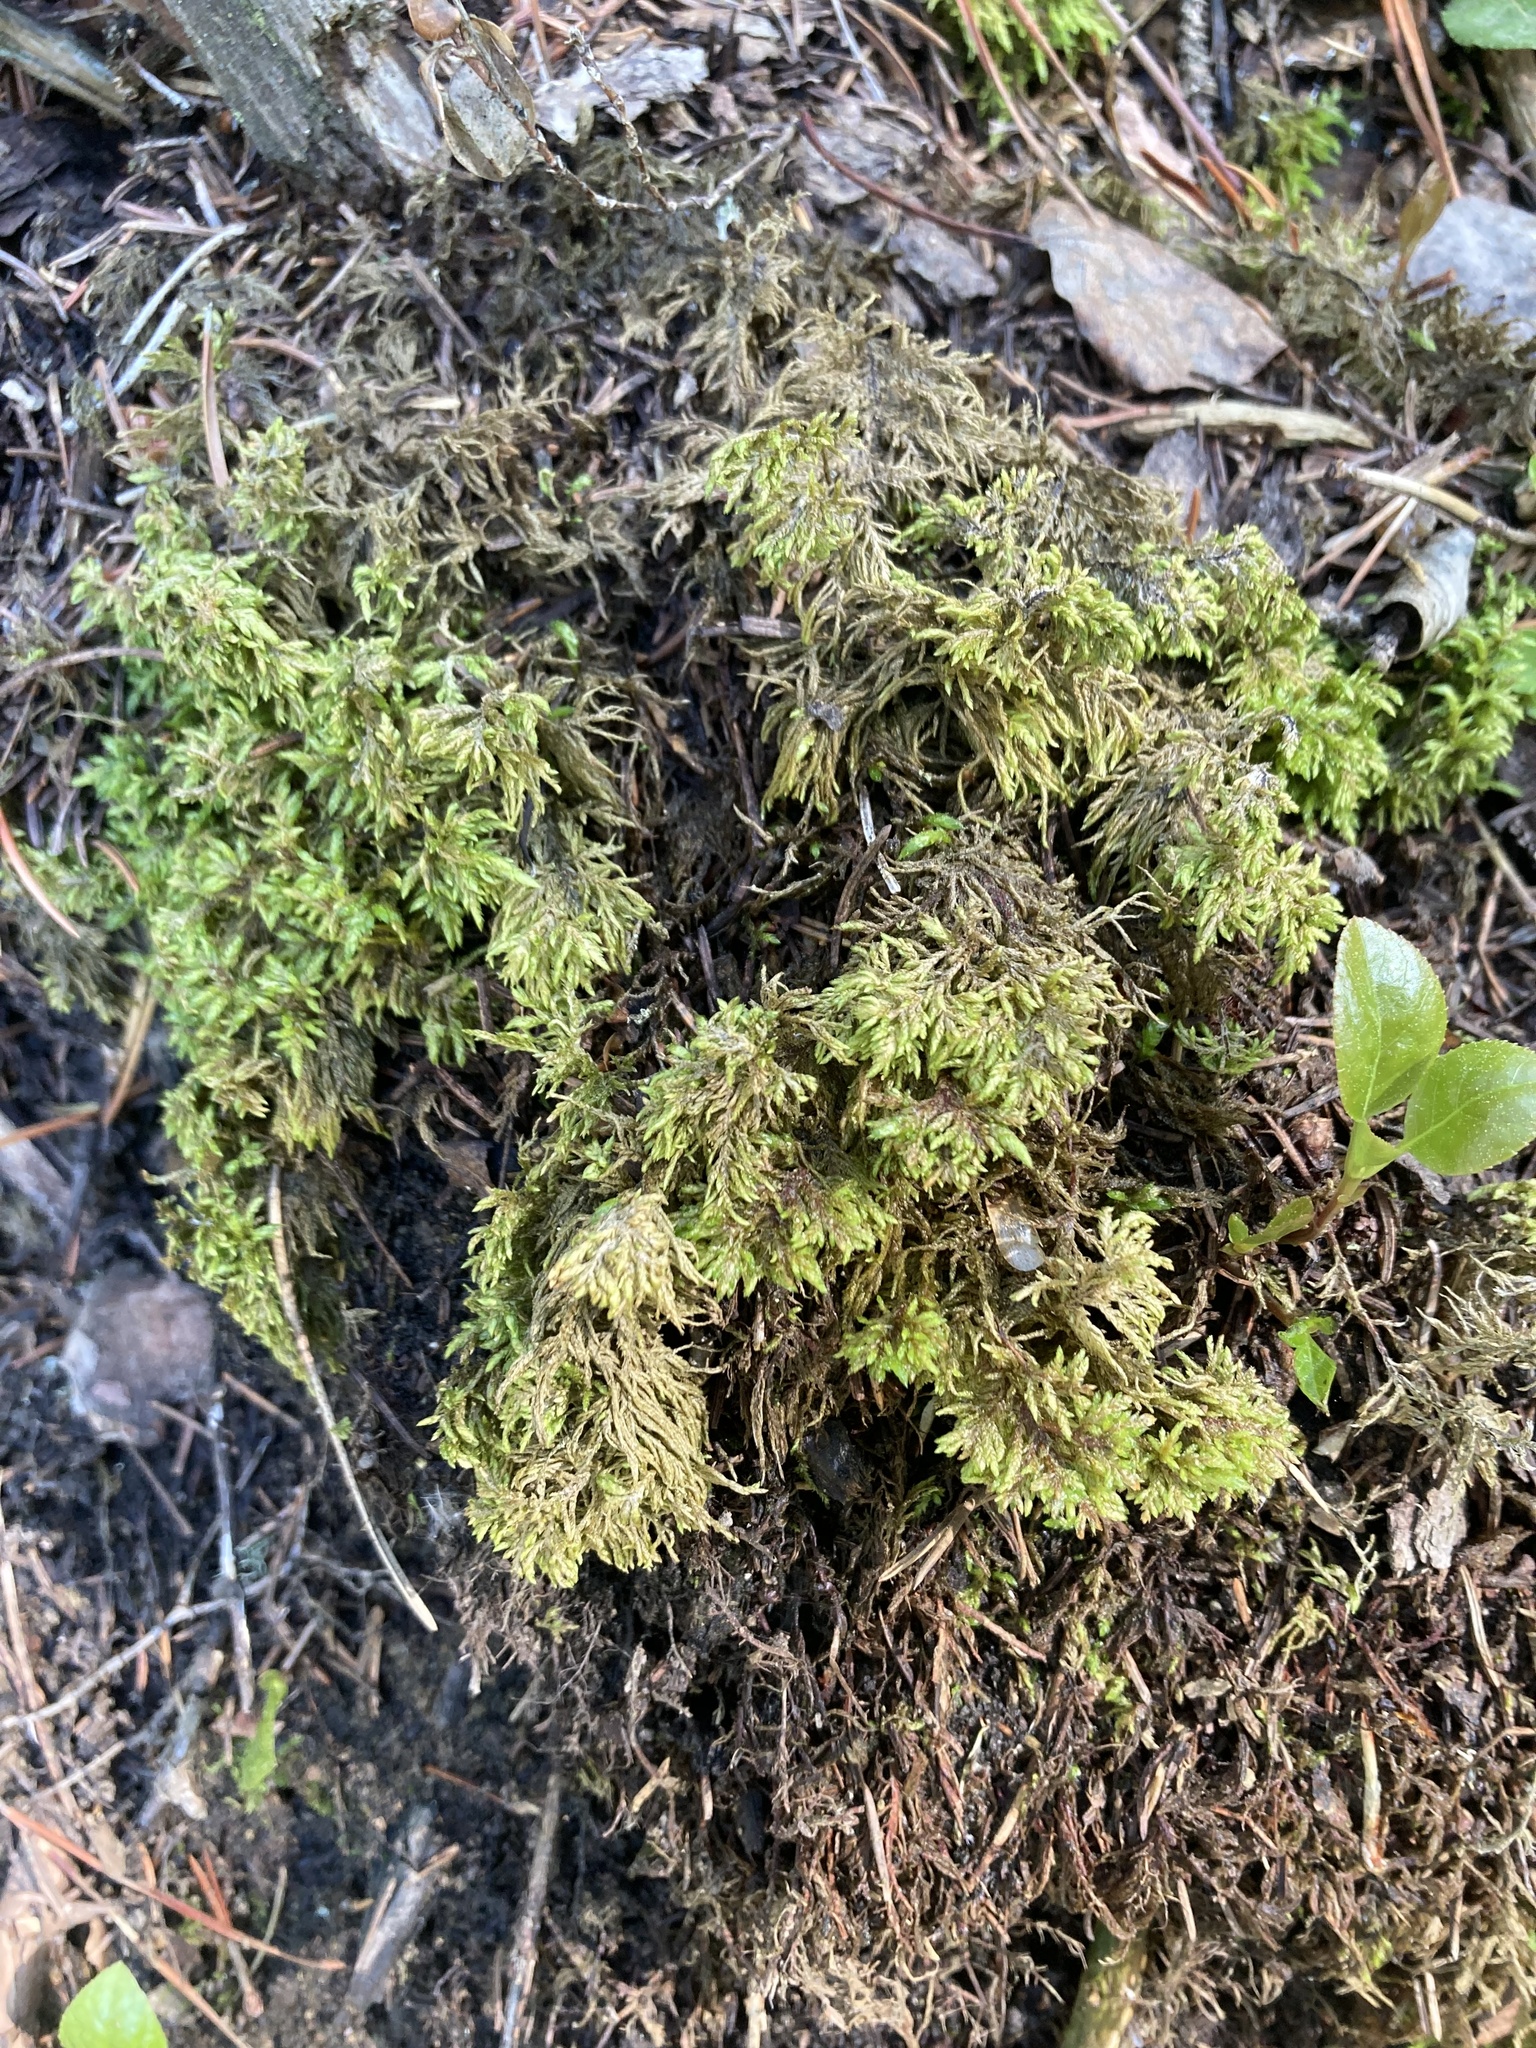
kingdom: Plantae
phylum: Bryophyta
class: Bryopsida
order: Hypnales
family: Hylocomiaceae
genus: Hylocomium
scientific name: Hylocomium splendens
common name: Stairstep moss
